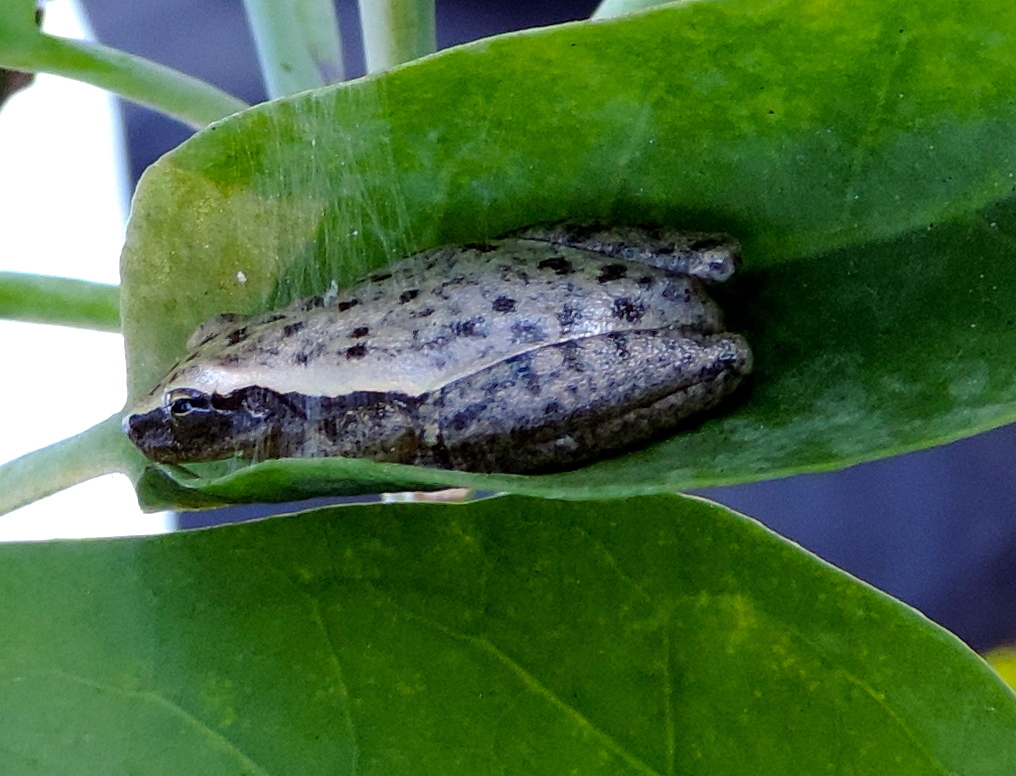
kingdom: Animalia
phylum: Chordata
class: Amphibia
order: Anura
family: Hylidae
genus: Tlalocohyla
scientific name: Tlalocohyla smithii
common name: Dwarf mexican treefrog
